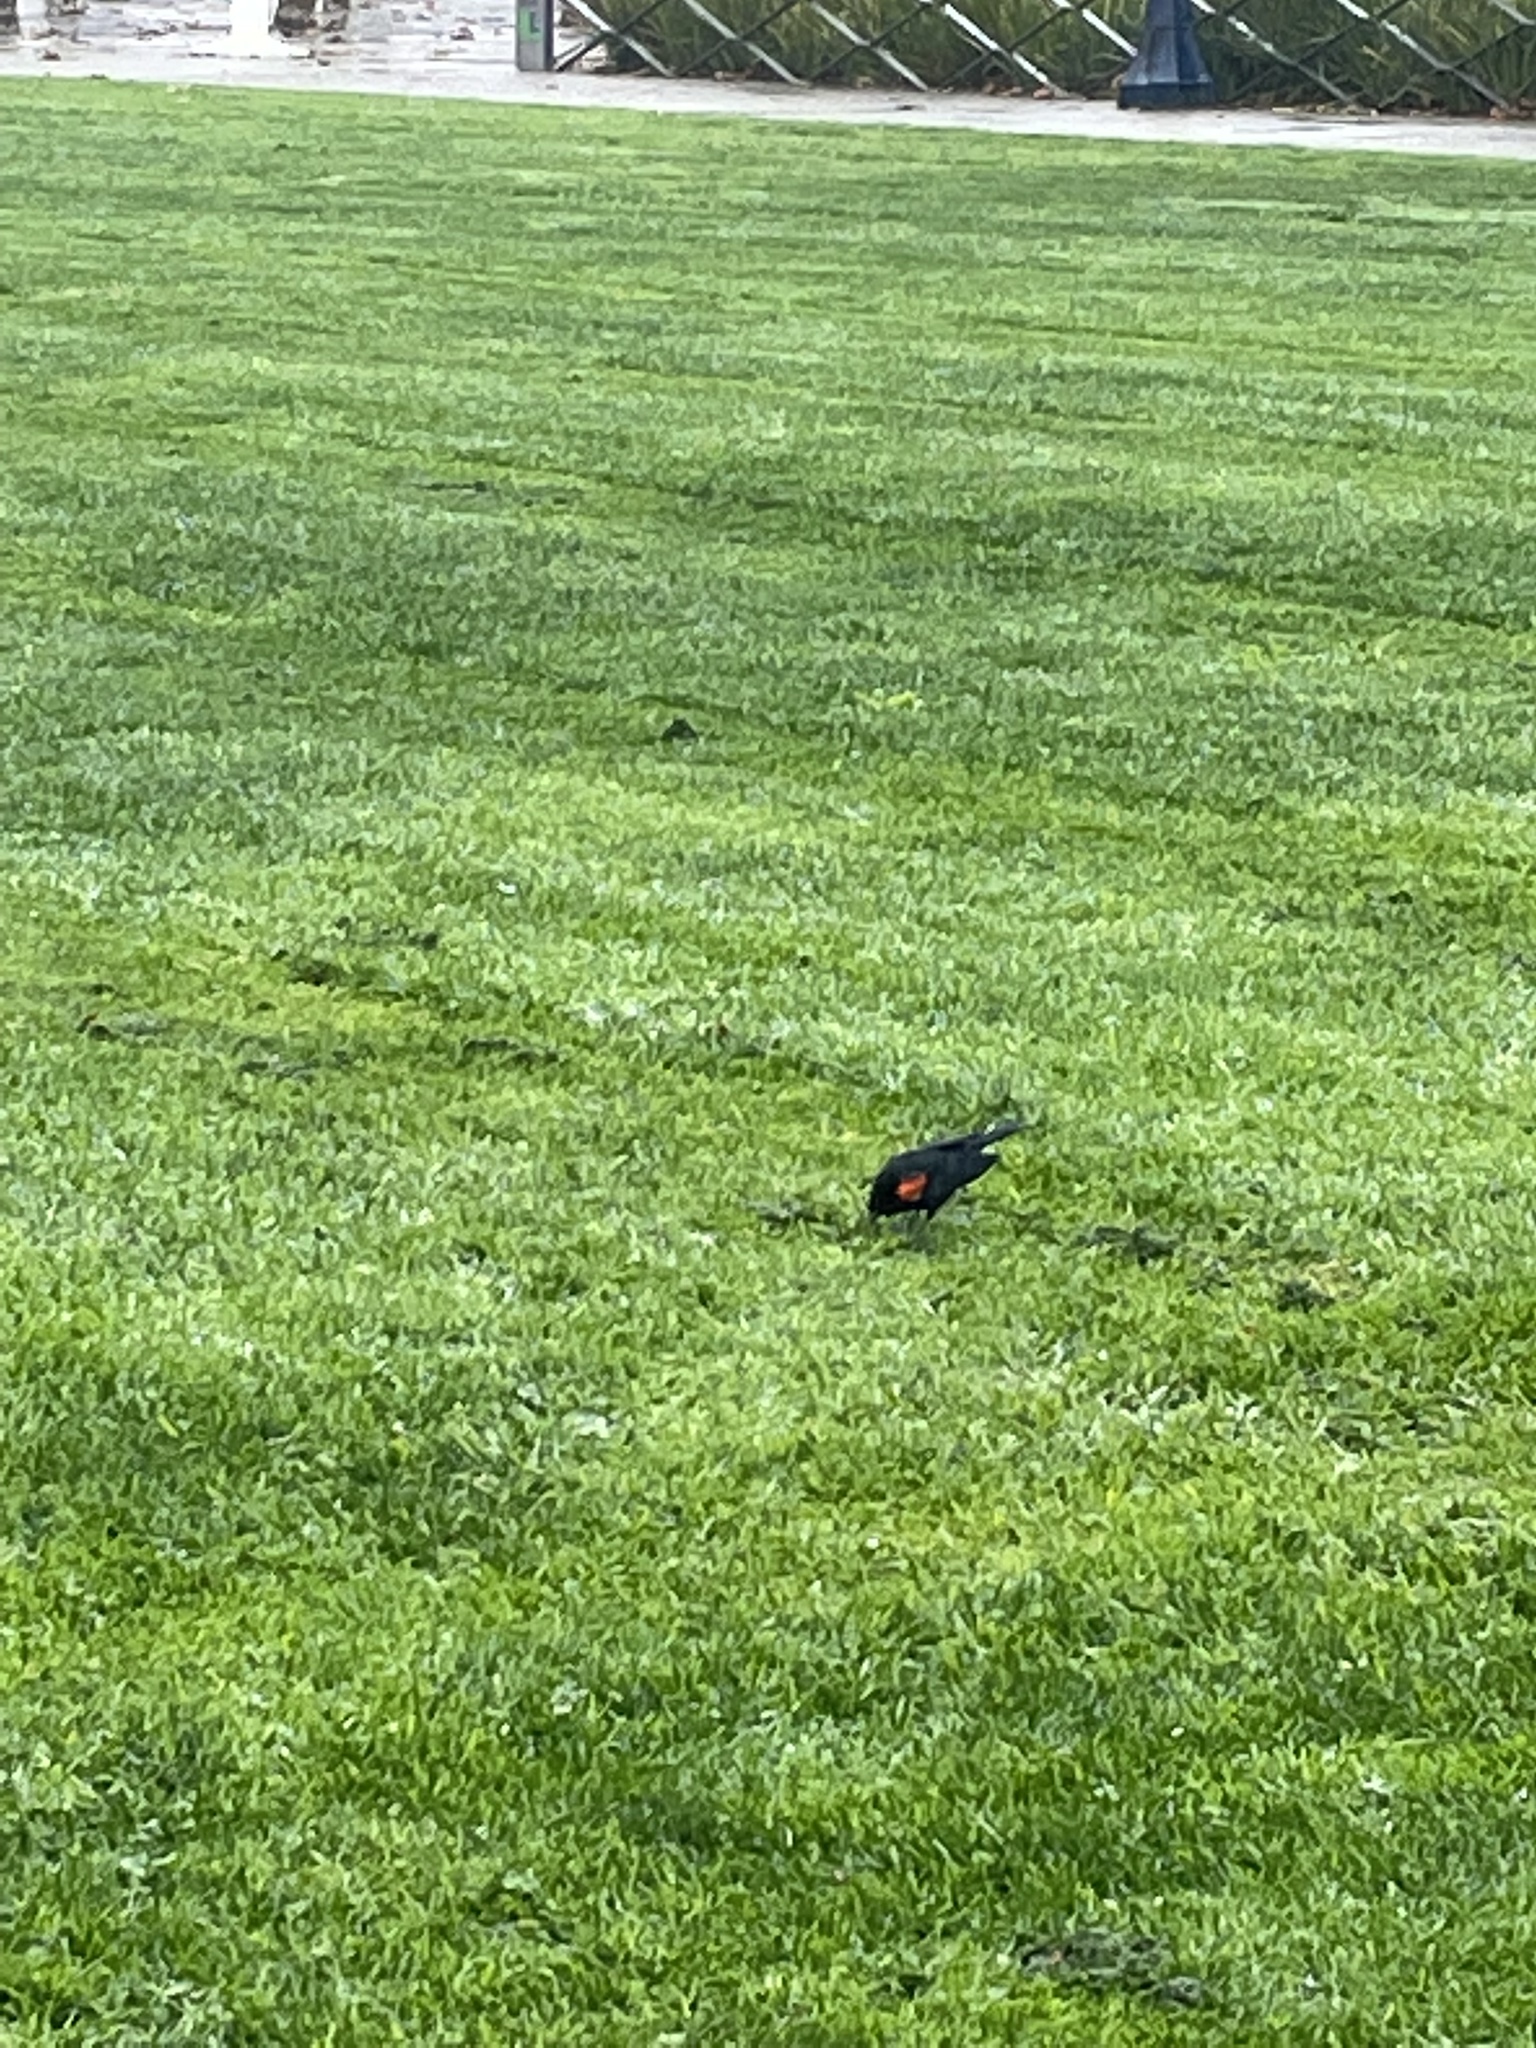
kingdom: Animalia
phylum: Chordata
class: Aves
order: Passeriformes
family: Icteridae
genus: Agelaius
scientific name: Agelaius phoeniceus
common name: Red-winged blackbird
